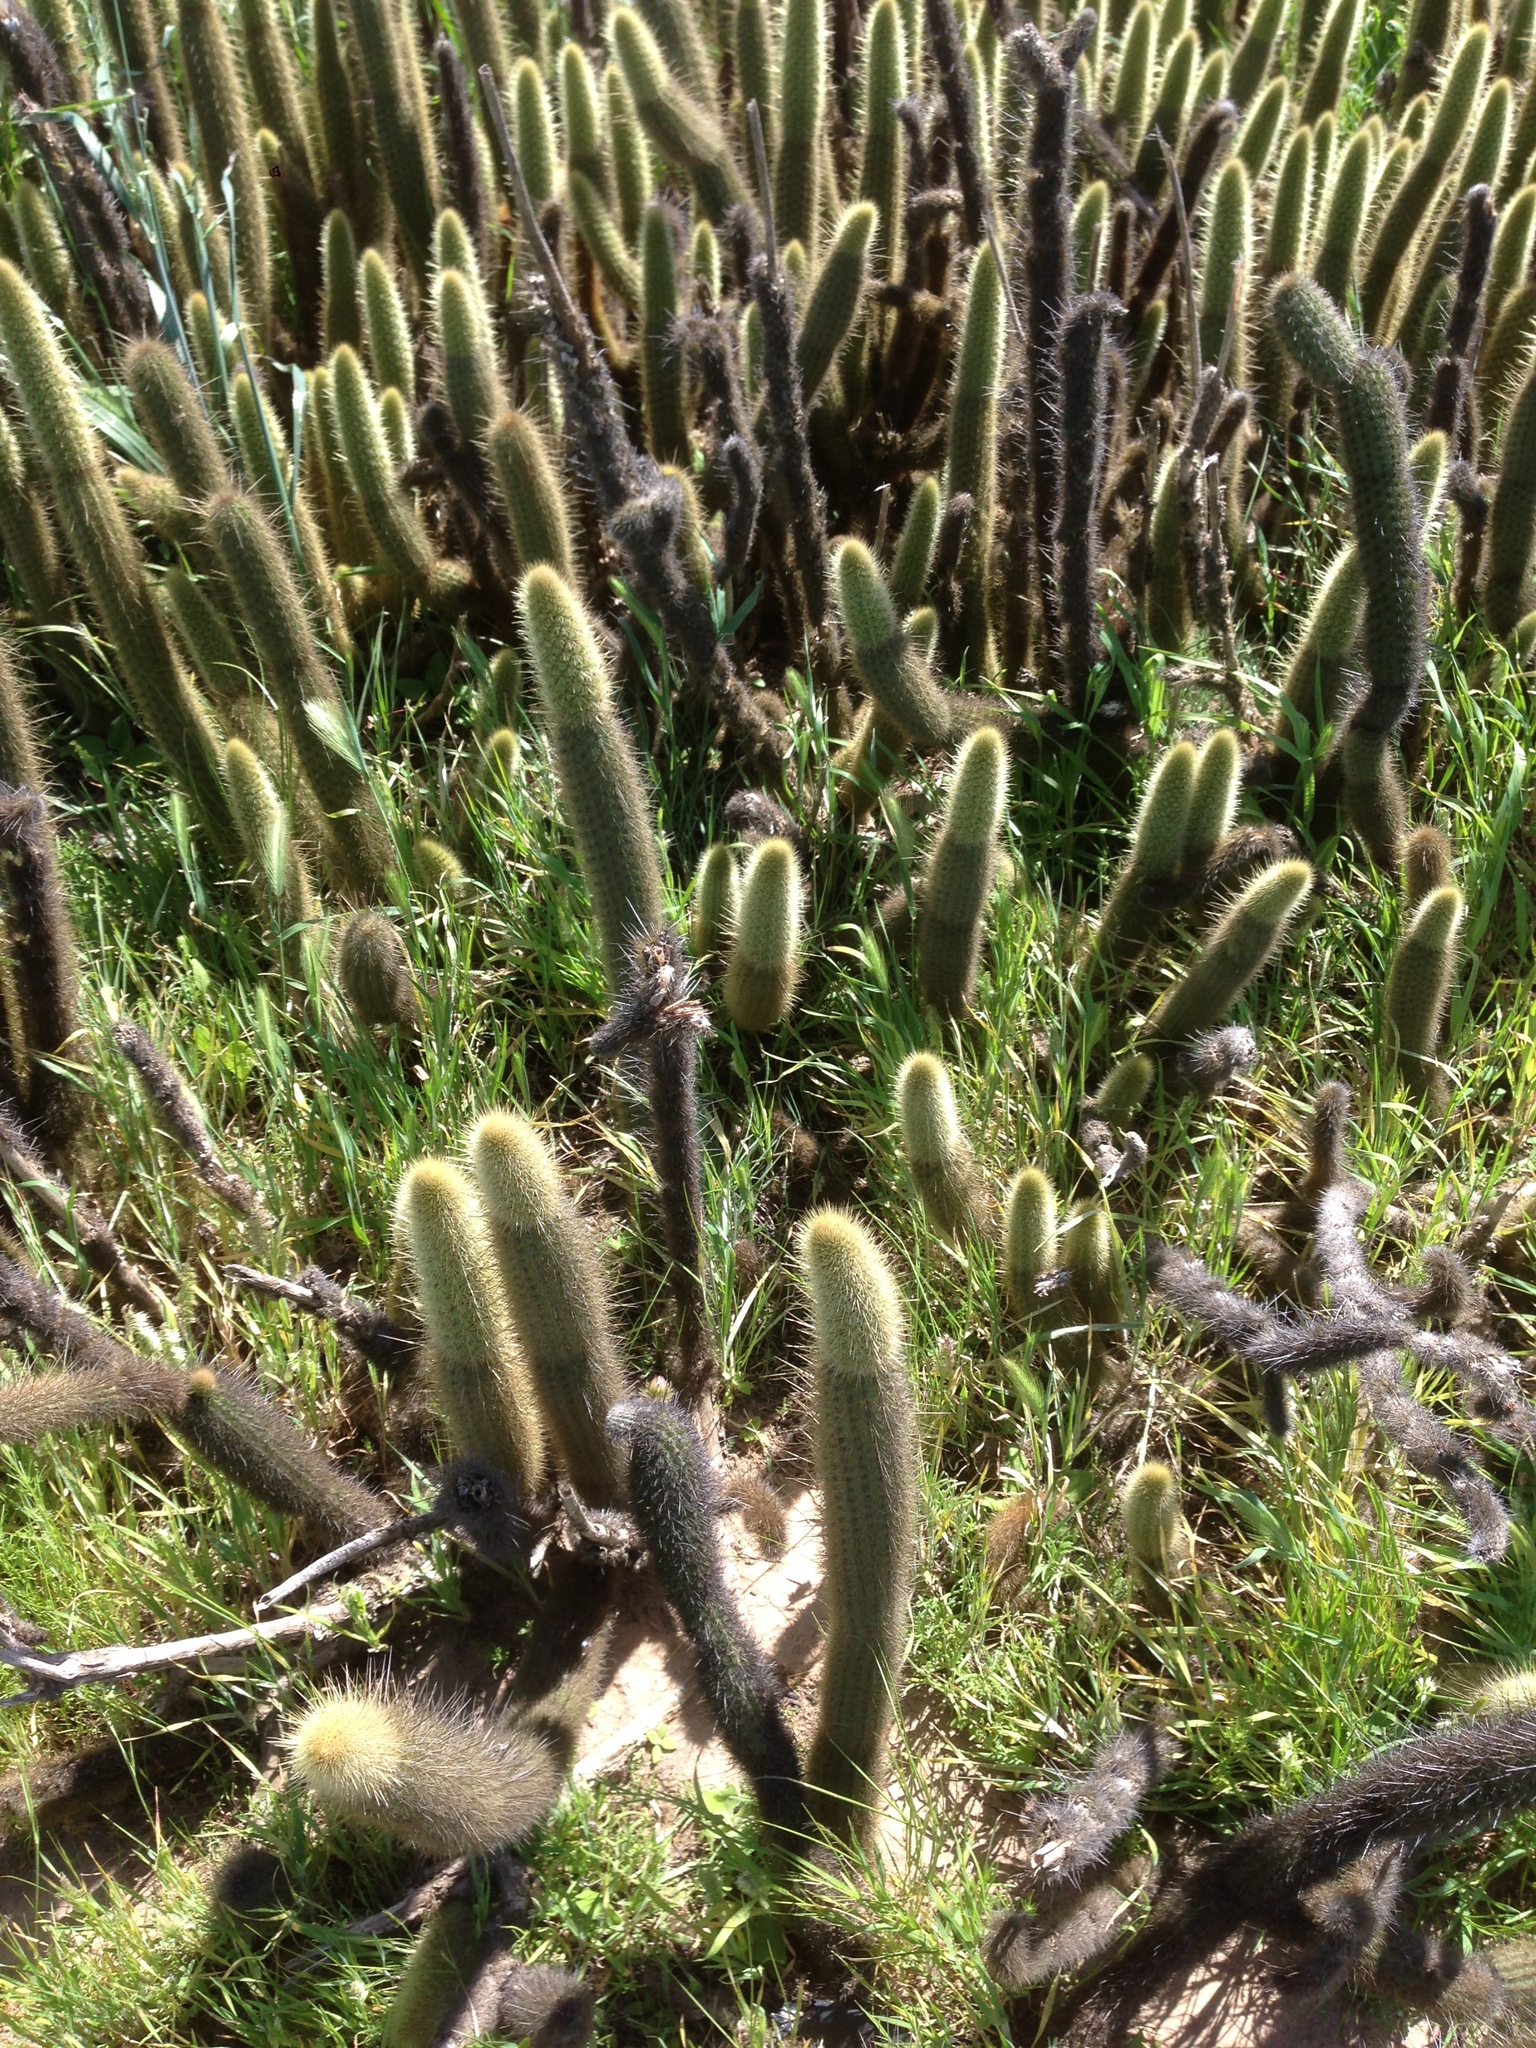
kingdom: Plantae
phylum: Tracheophyta
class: Magnoliopsida
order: Caryophyllales
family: Cactaceae
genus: Bergerocactus
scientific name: Bergerocactus emoryi
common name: Golden snakecactus
